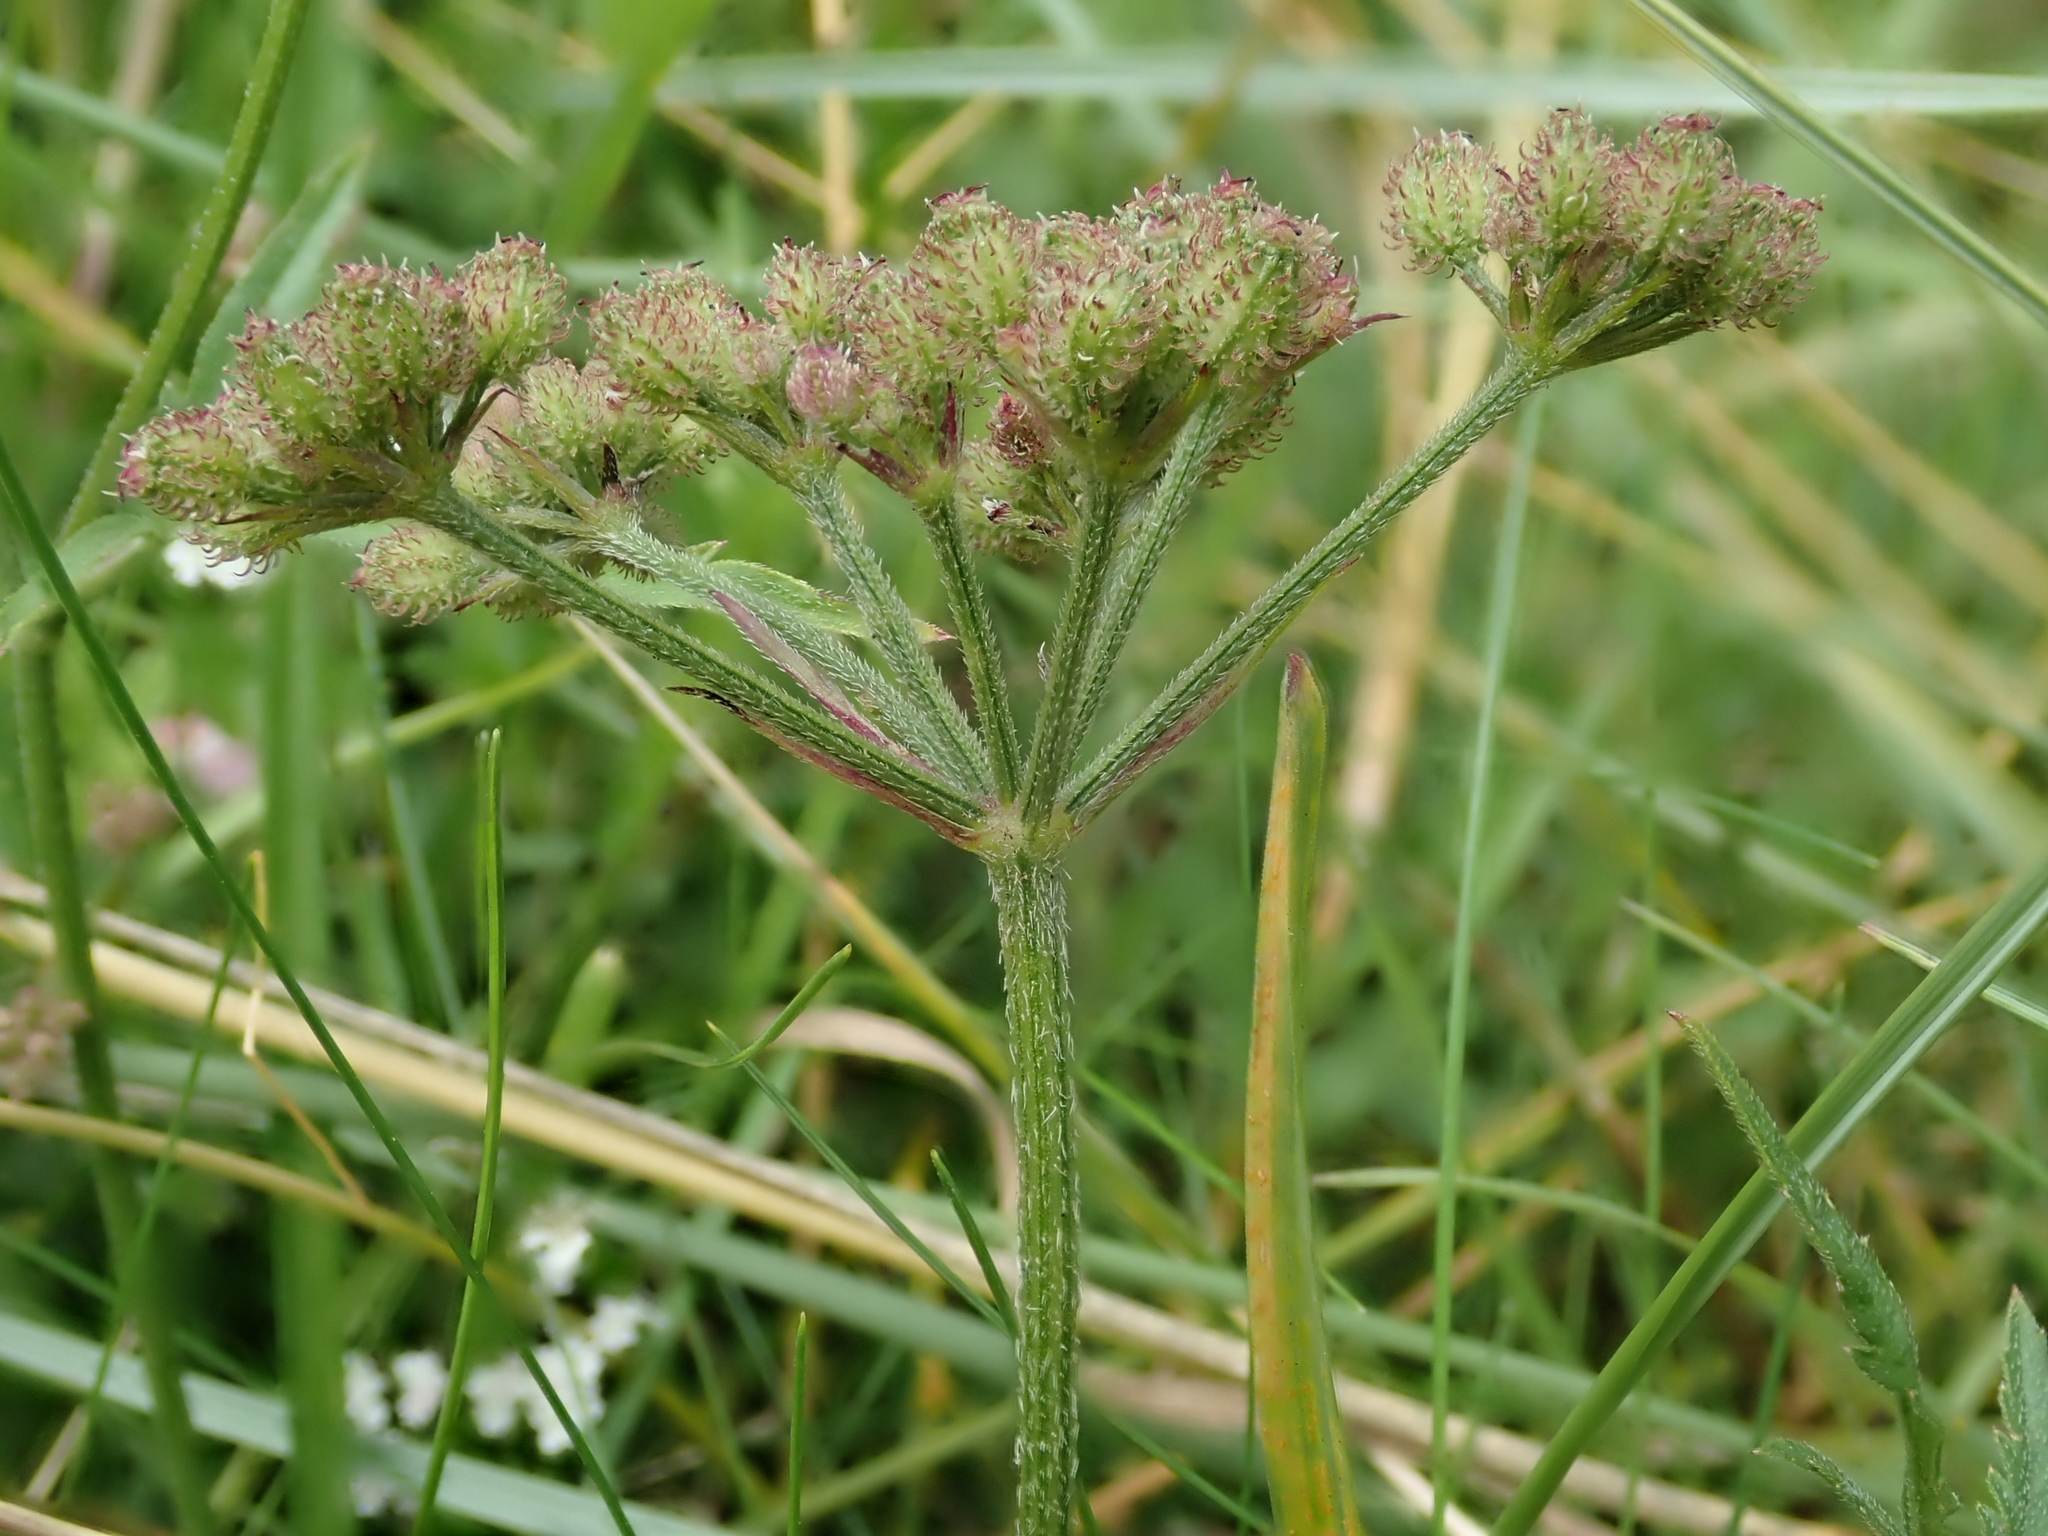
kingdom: Plantae
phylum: Tracheophyta
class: Magnoliopsida
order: Apiales
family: Apiaceae
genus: Torilis
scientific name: Torilis japonica
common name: Upright hedge-parsley
